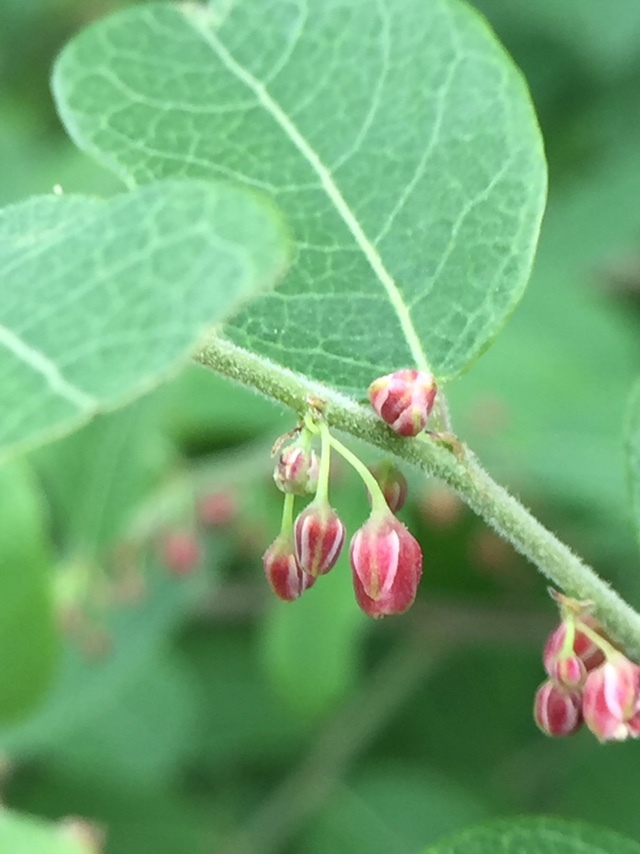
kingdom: Plantae
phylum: Tracheophyta
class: Magnoliopsida
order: Malpighiales
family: Phyllanthaceae
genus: Phyllanthus
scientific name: Phyllanthus reticulatus
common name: Potato bush
